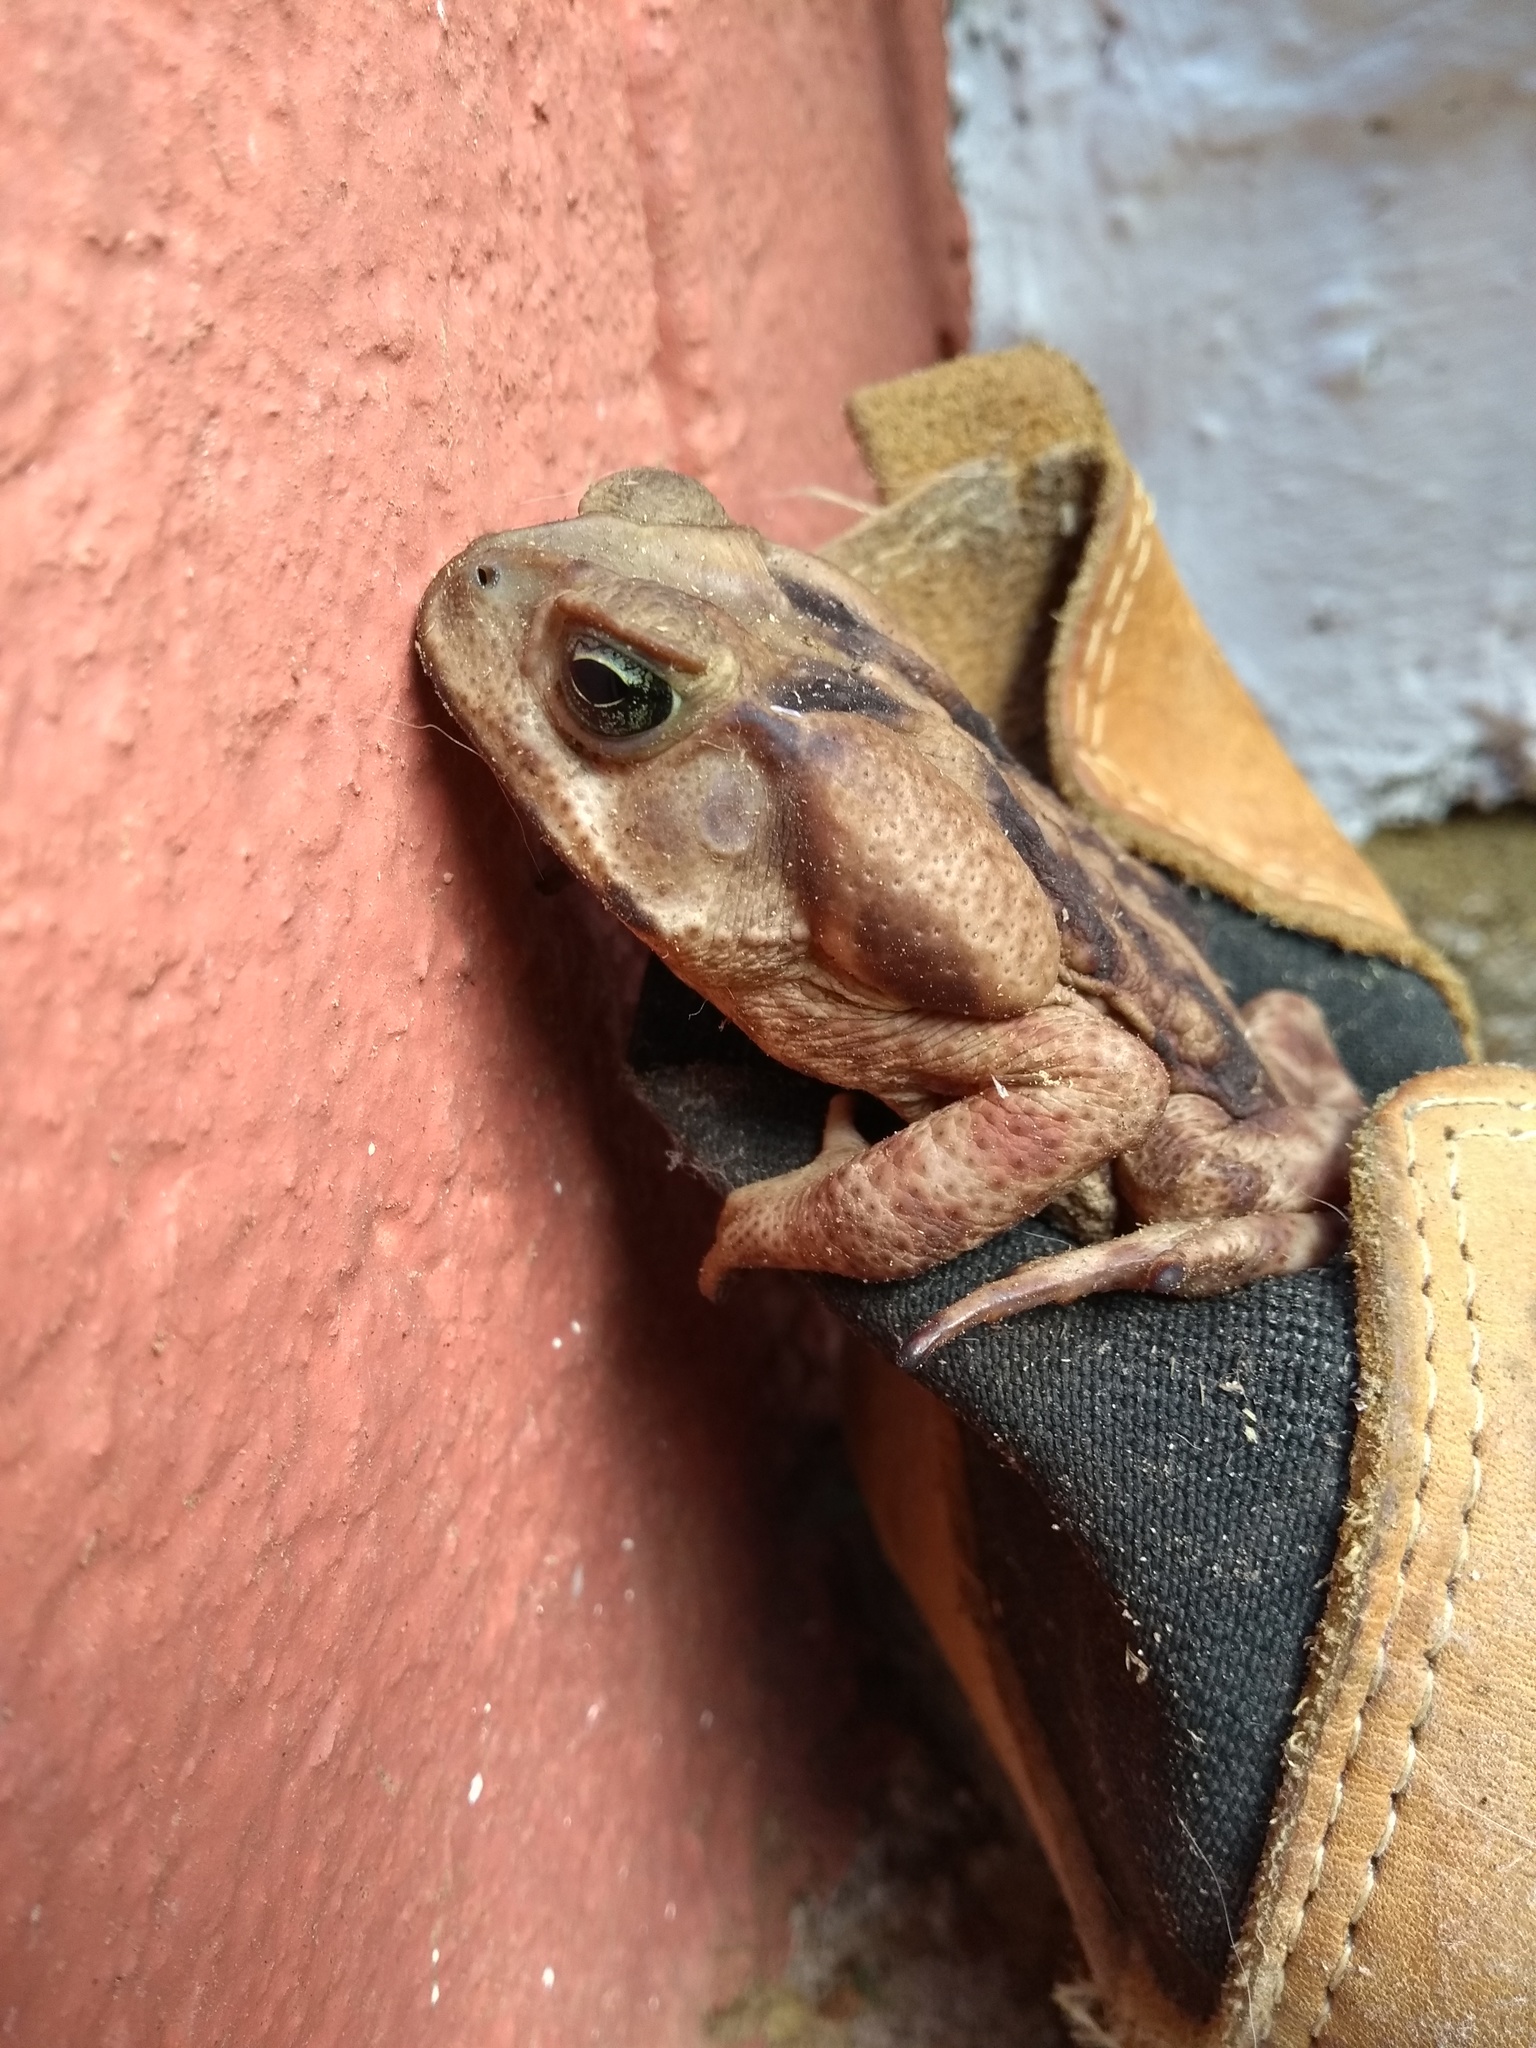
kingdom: Animalia
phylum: Chordata
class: Amphibia
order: Anura
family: Bufonidae
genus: Rhinella
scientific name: Rhinella icterica
